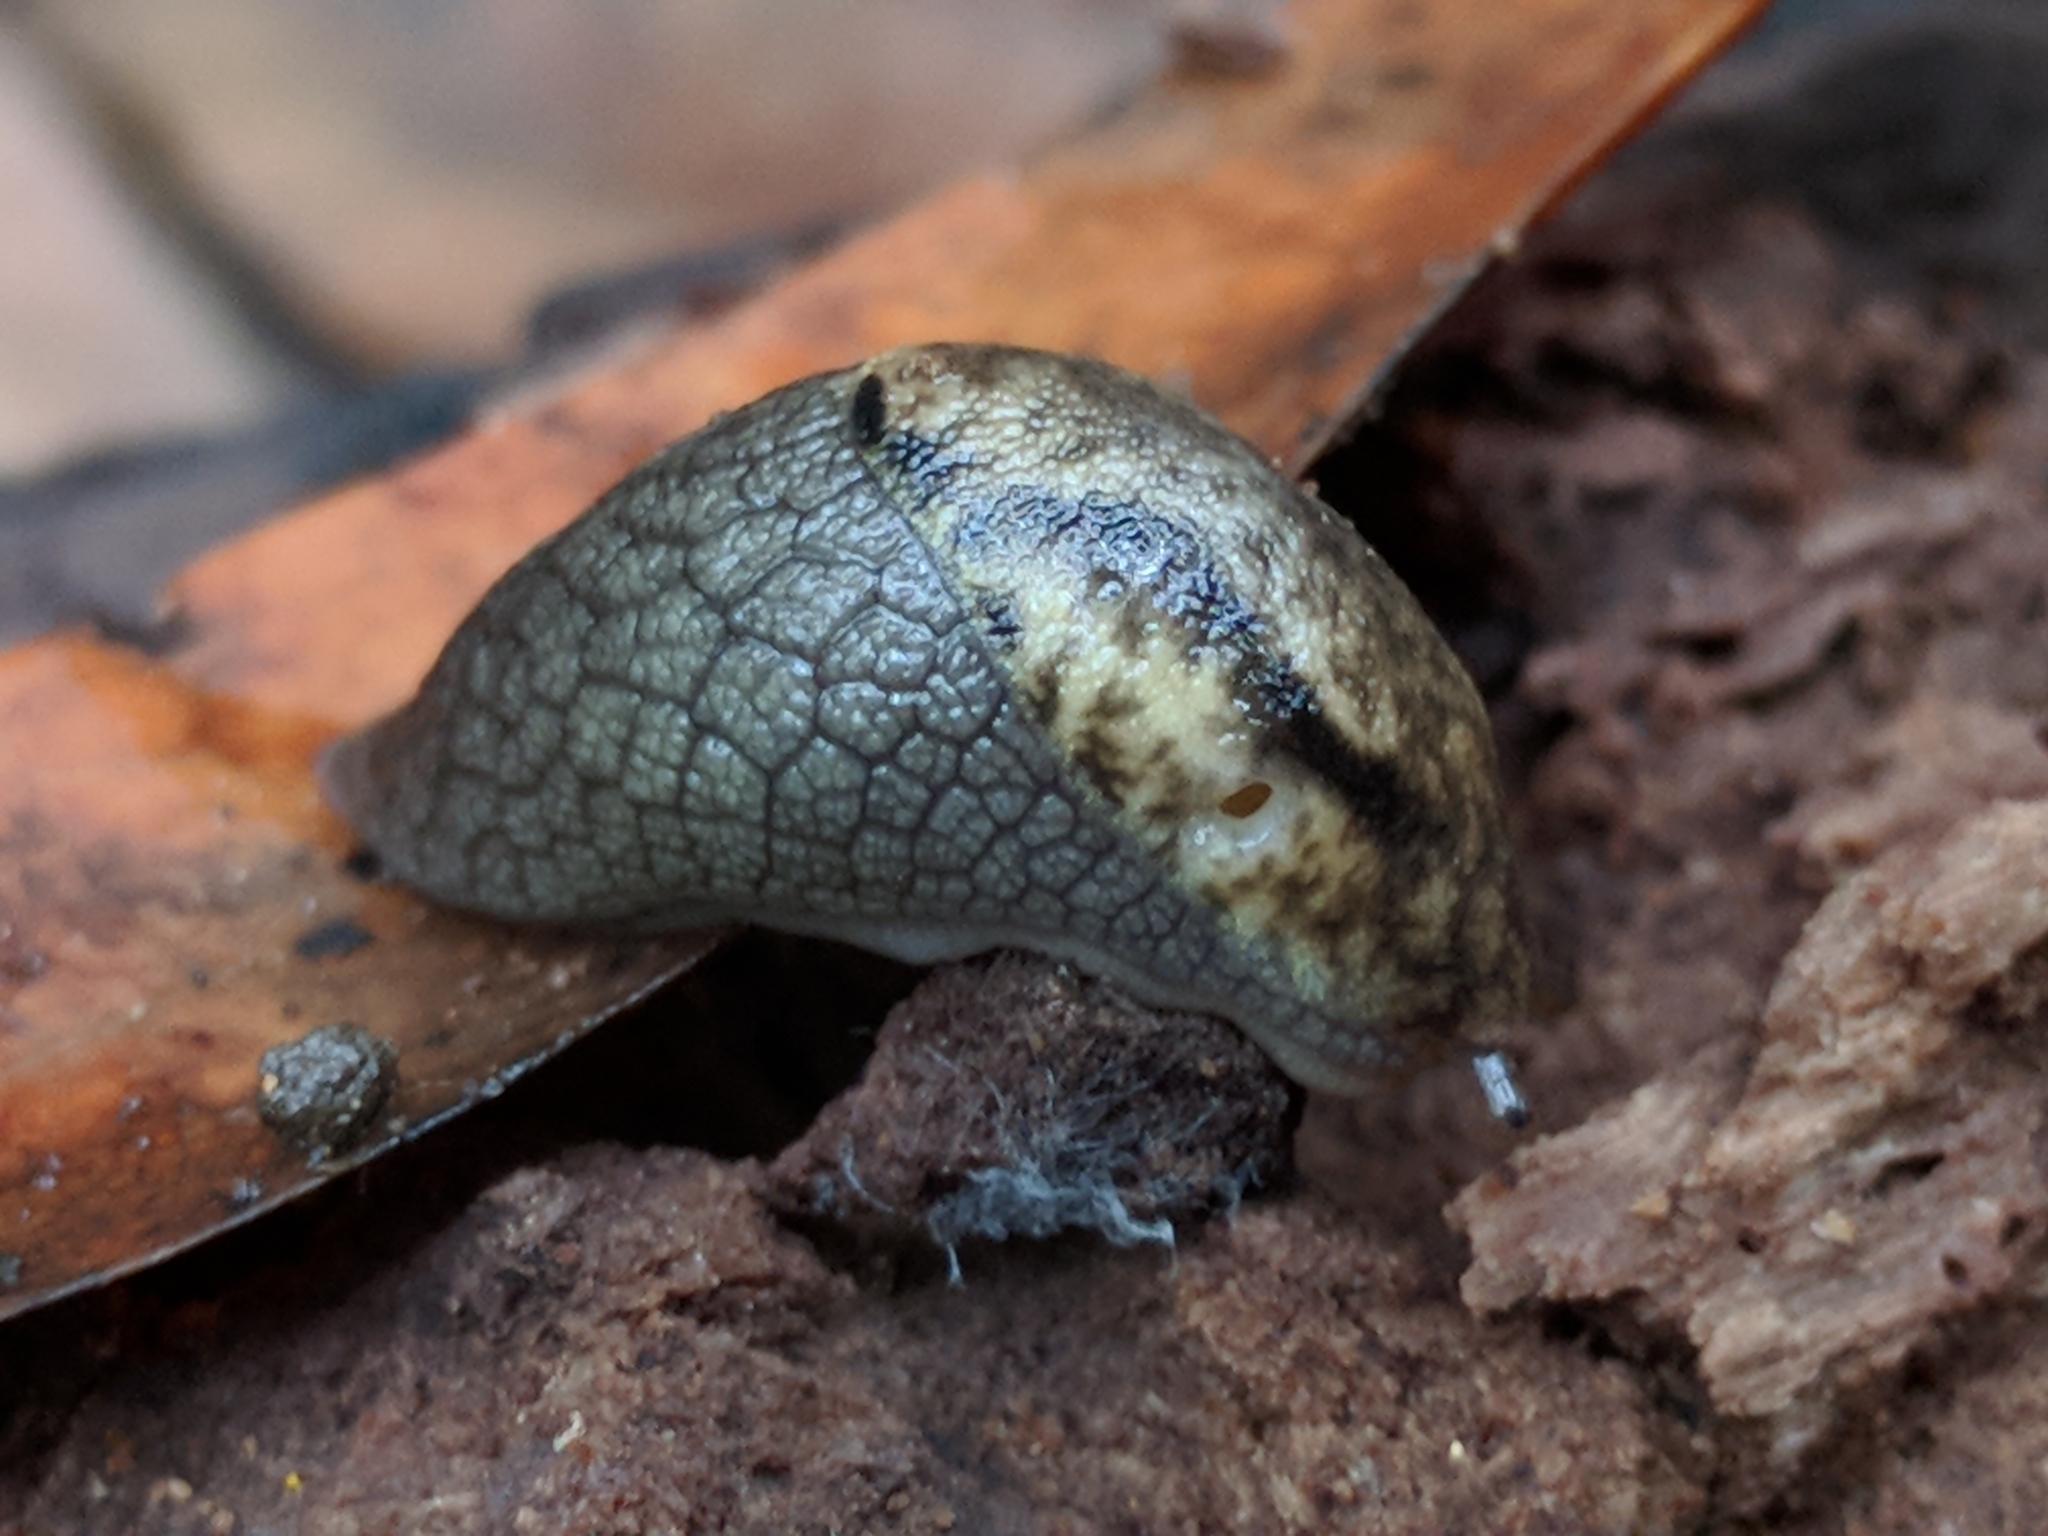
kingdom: Animalia
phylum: Mollusca
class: Gastropoda
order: Stylommatophora
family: Ariolimacidae
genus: Prophysaon
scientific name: Prophysaon andersonii
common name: Reticulate taildropper
